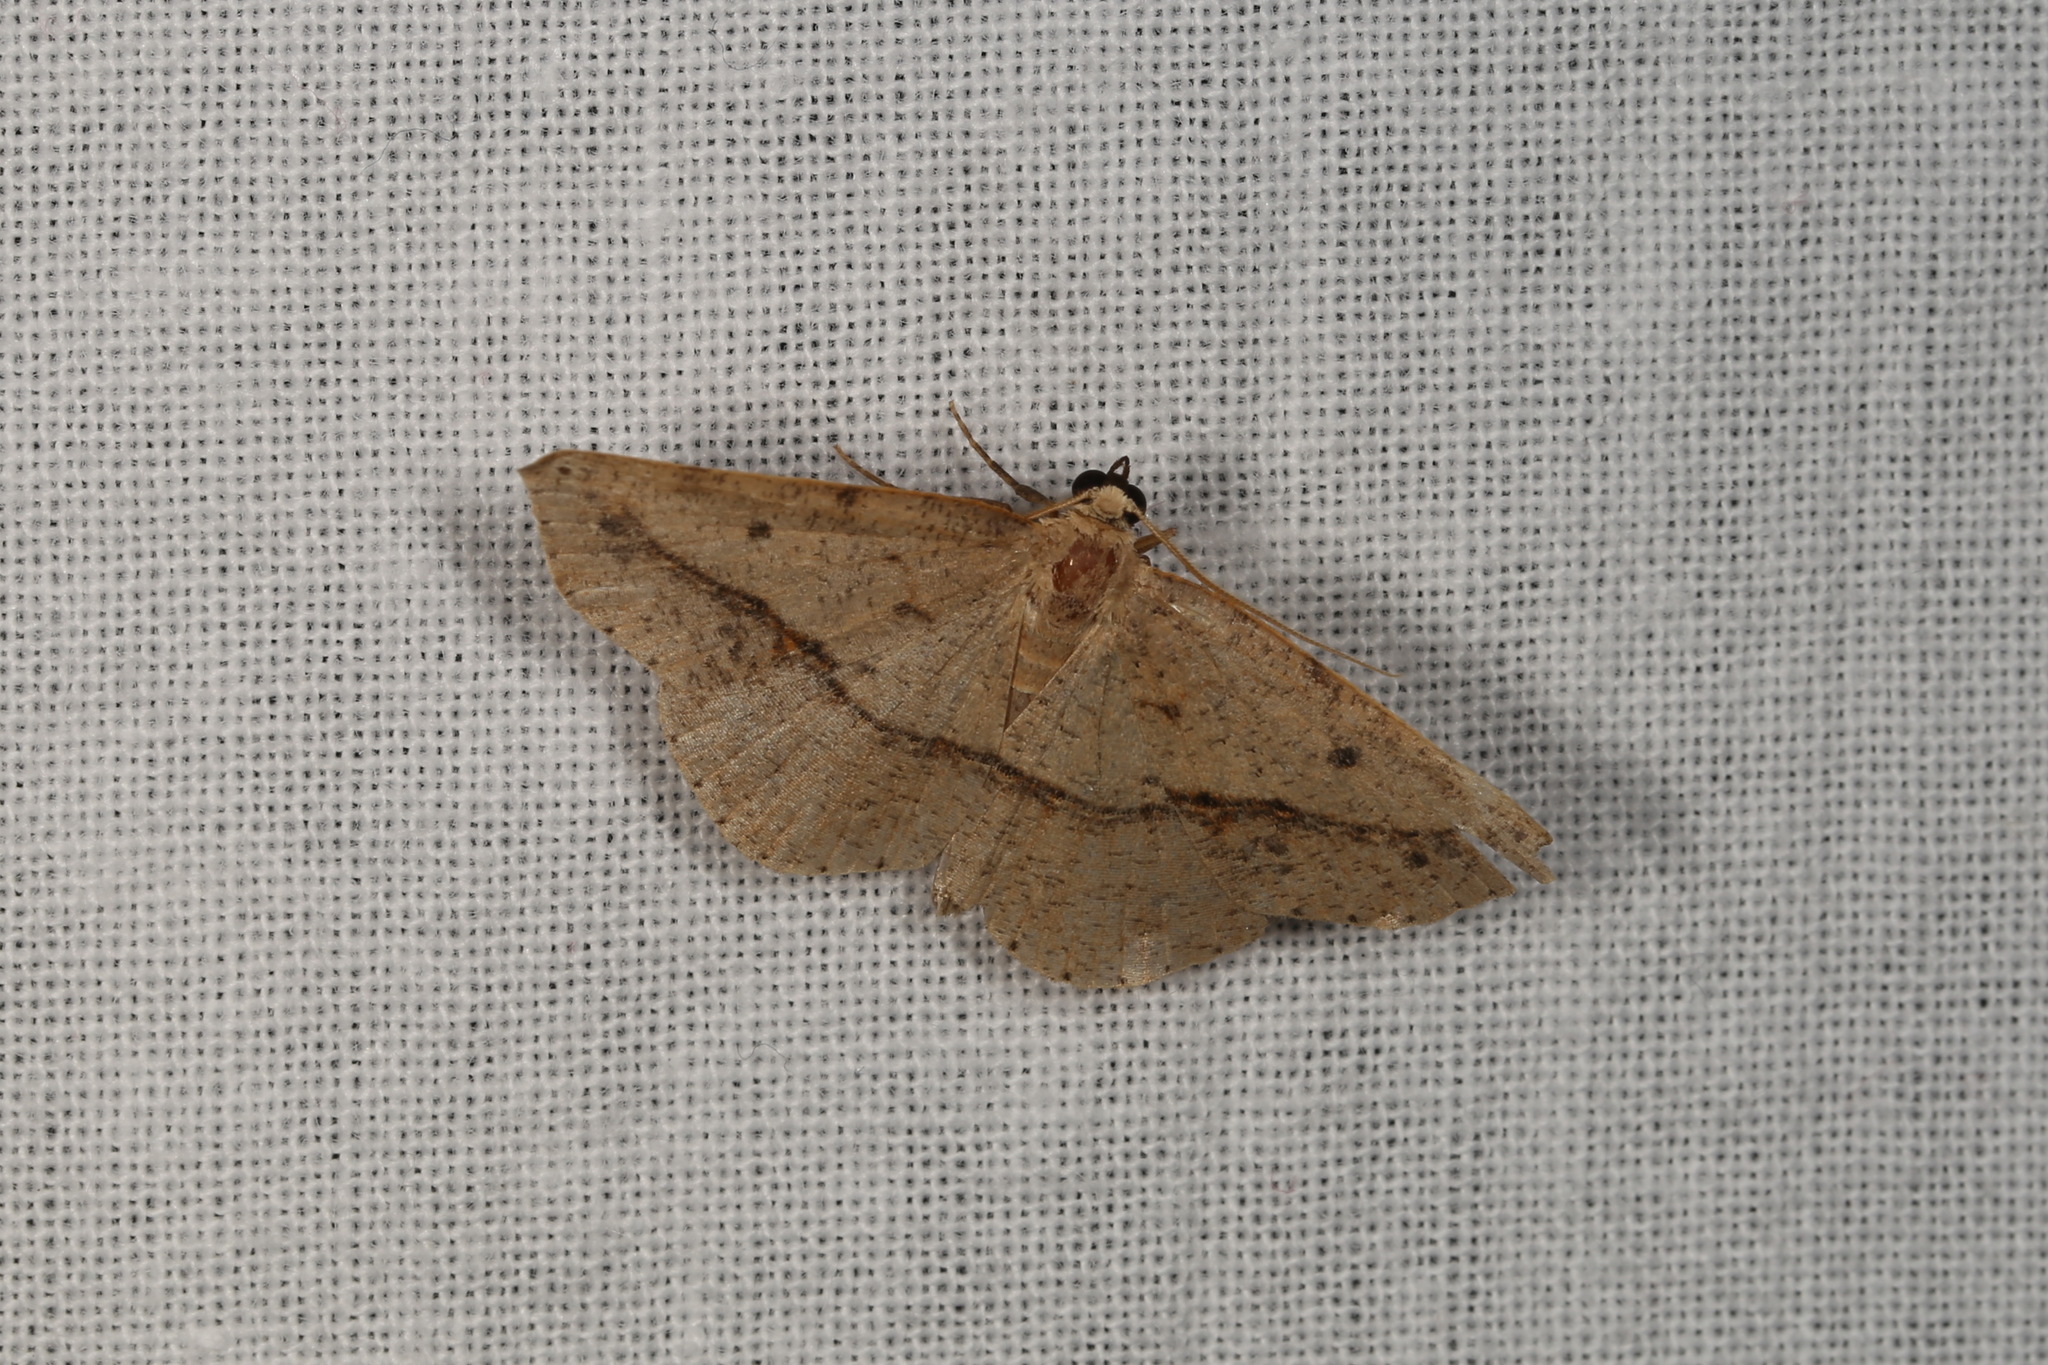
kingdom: Animalia
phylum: Arthropoda
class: Insecta
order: Lepidoptera
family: Geometridae
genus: Taxeotis
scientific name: Taxeotis epigaea
